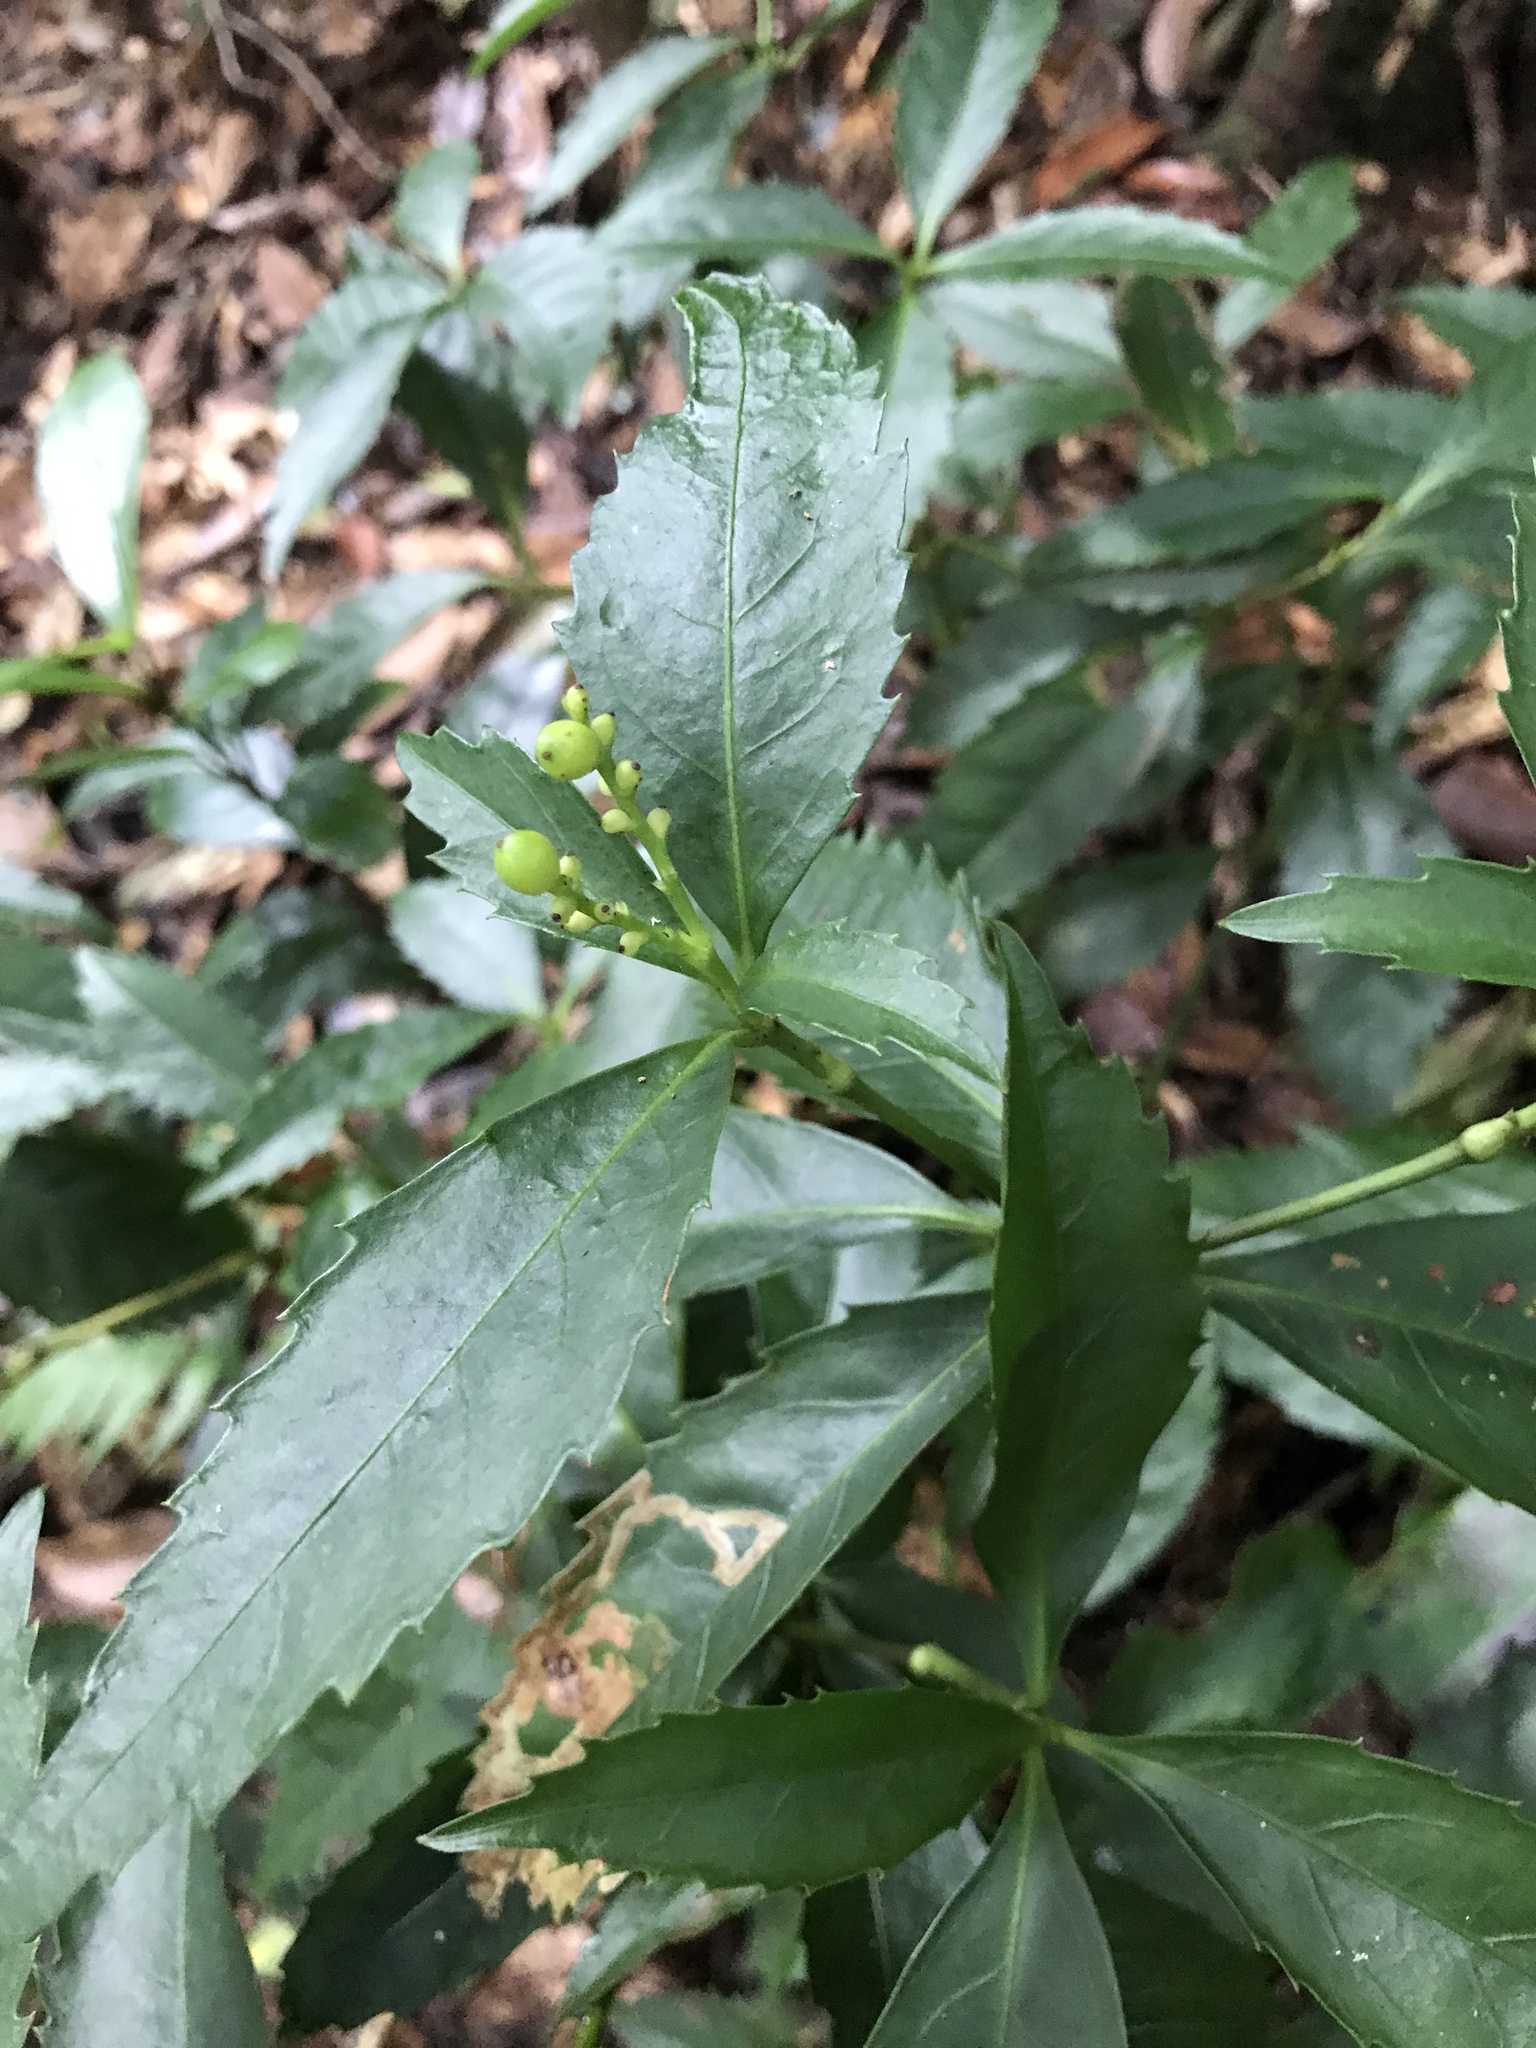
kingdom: Plantae
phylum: Tracheophyta
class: Magnoliopsida
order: Chloranthales
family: Chloranthaceae
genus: Sarcandra
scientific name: Sarcandra glabra
